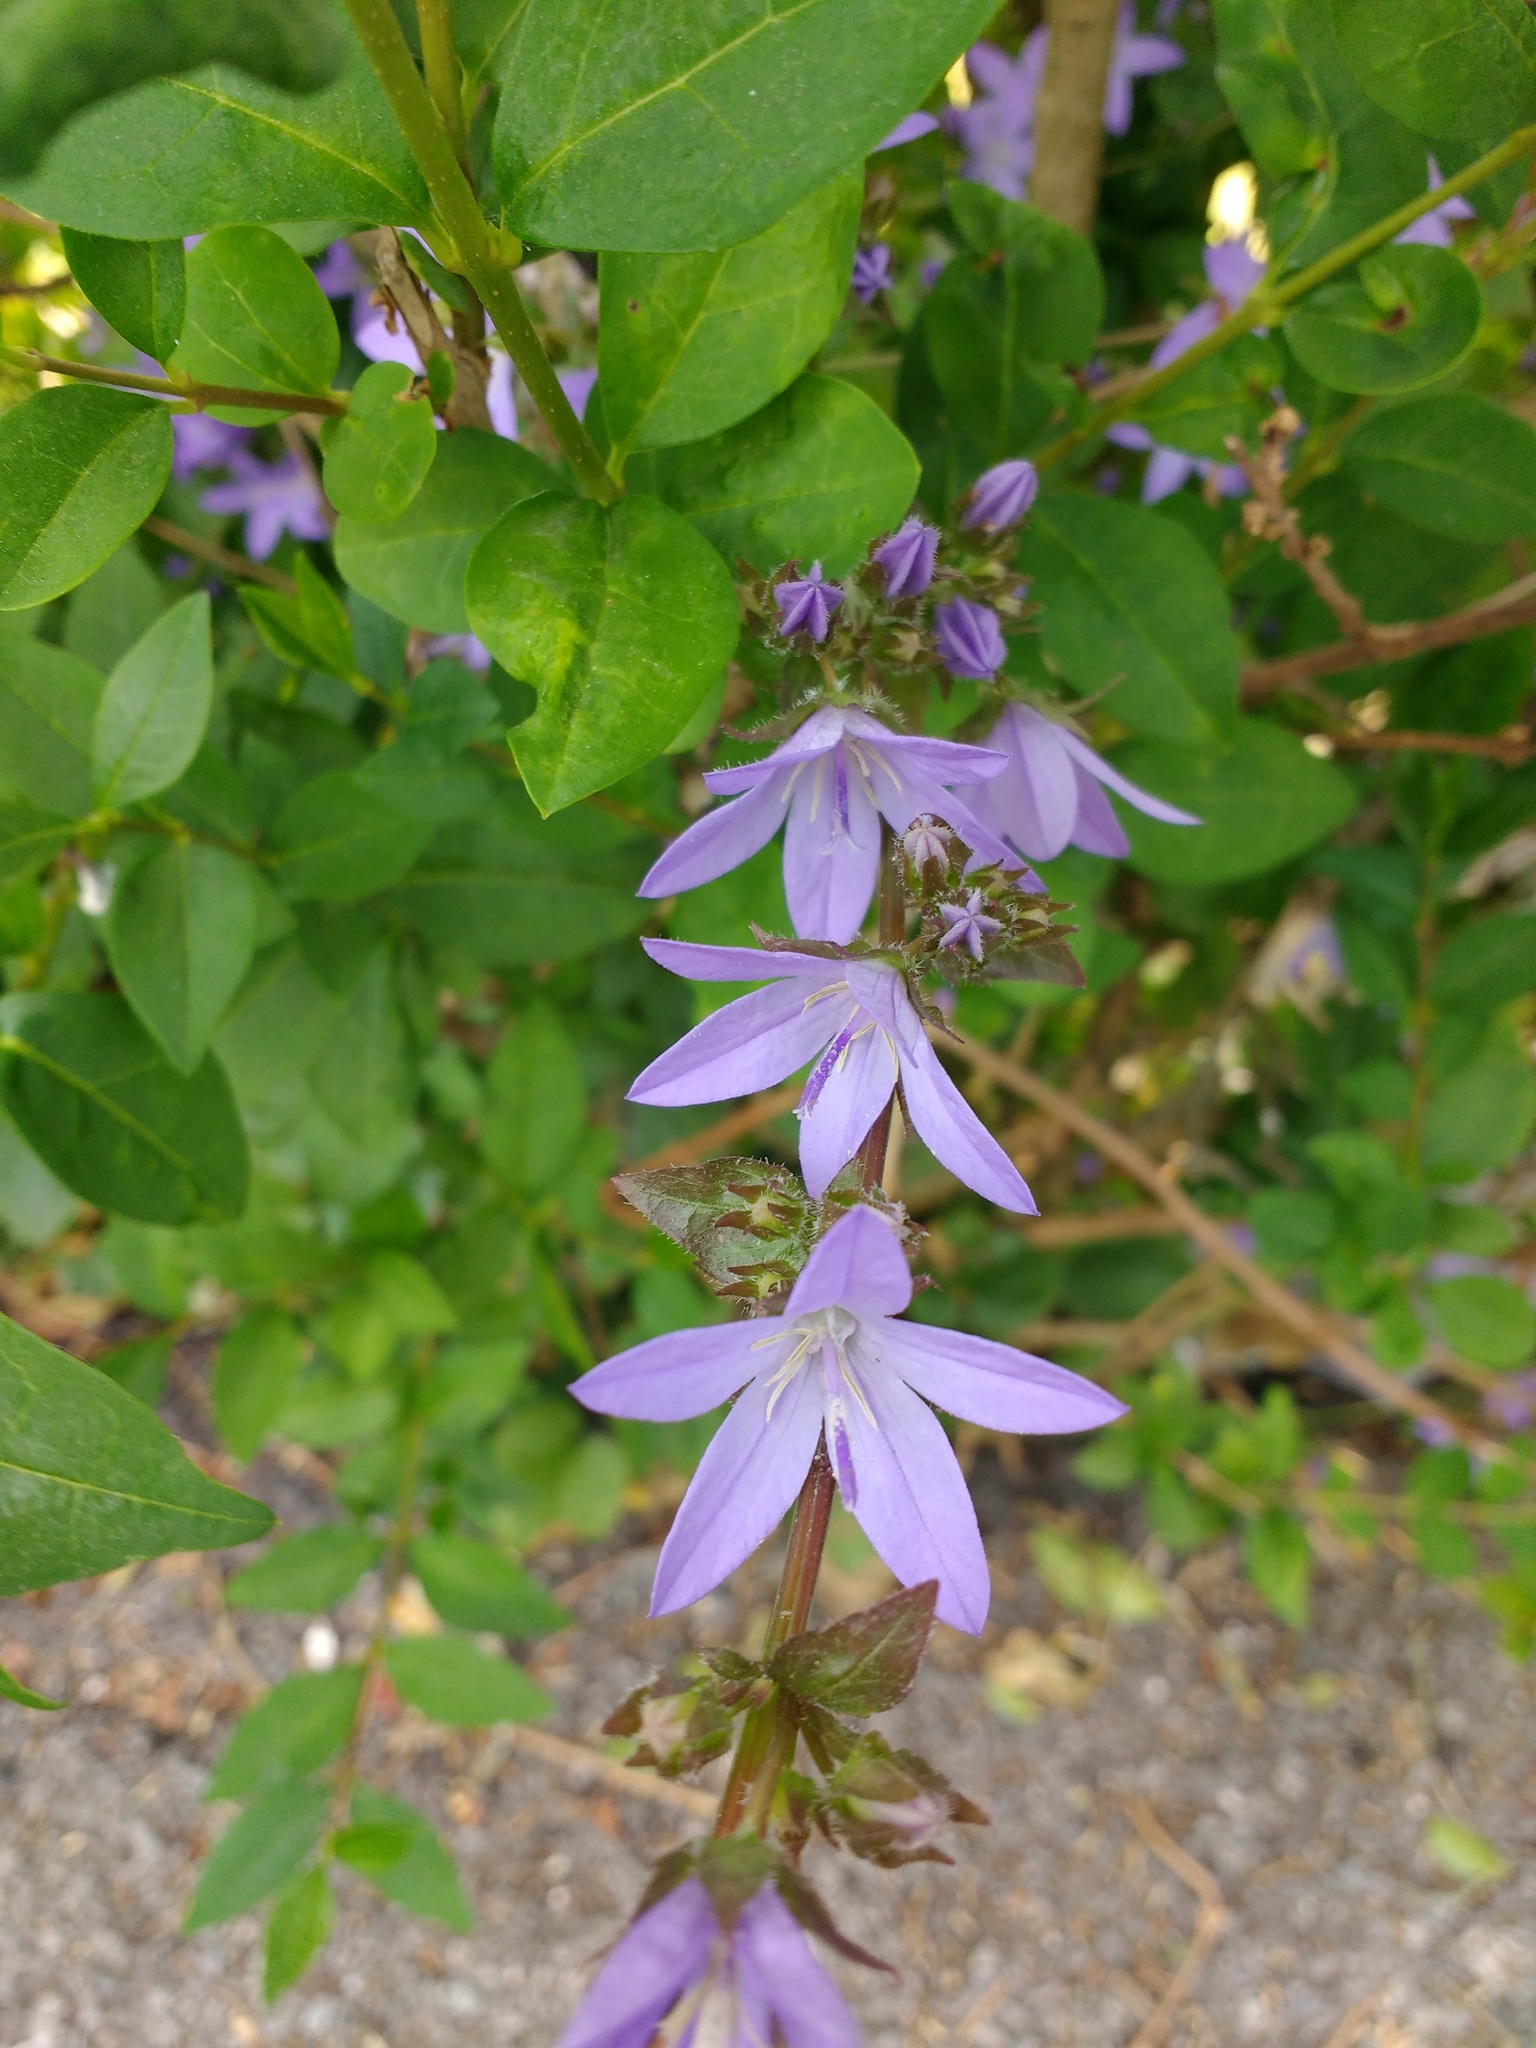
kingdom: Plantae
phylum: Tracheophyta
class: Magnoliopsida
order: Asterales
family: Campanulaceae
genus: Campanula
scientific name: Campanula poscharskyana
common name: Trailing bellflower
